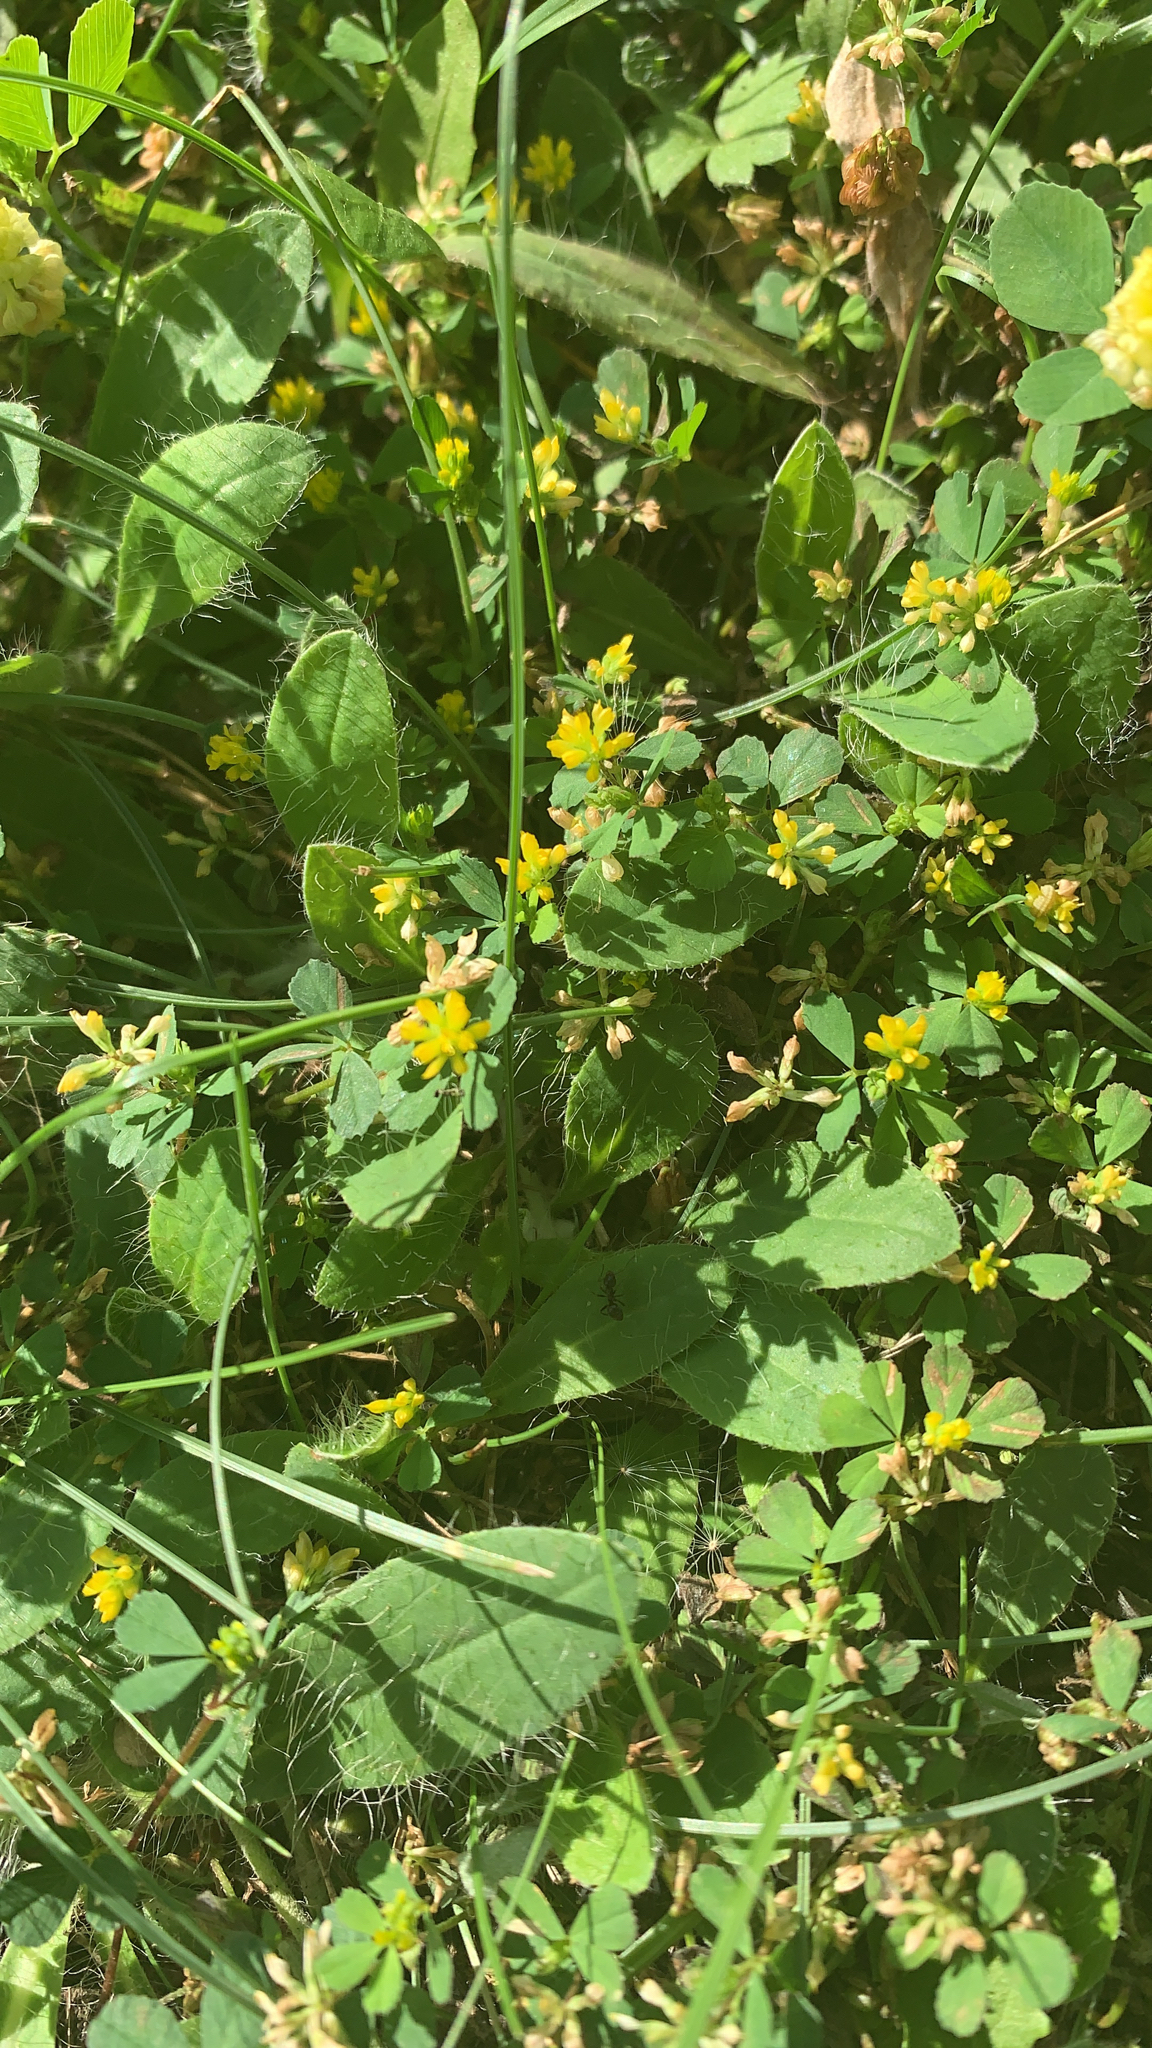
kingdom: Plantae
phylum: Tracheophyta
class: Magnoliopsida
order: Fabales
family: Fabaceae
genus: Trifolium
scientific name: Trifolium dubium
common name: Suckling clover
